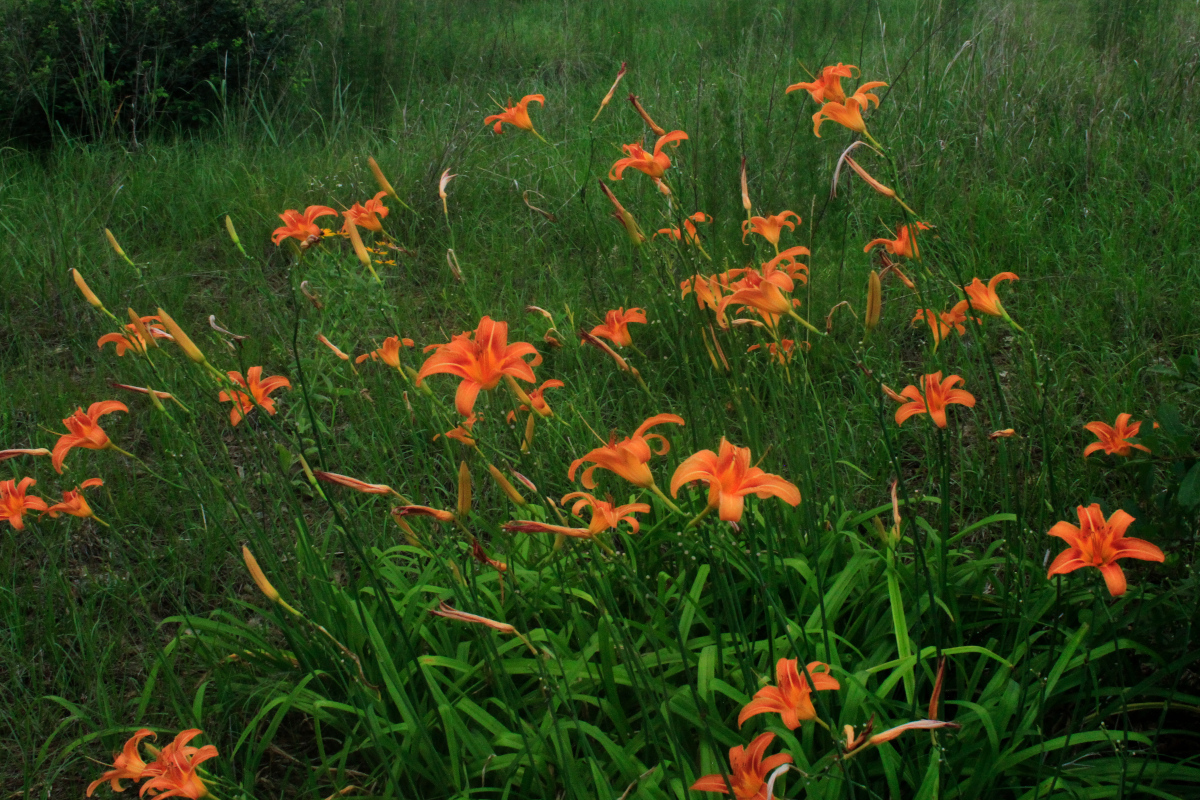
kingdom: Plantae
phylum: Tracheophyta
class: Liliopsida
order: Asparagales
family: Asphodelaceae
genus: Hemerocallis
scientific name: Hemerocallis fulva
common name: Orange day-lily
